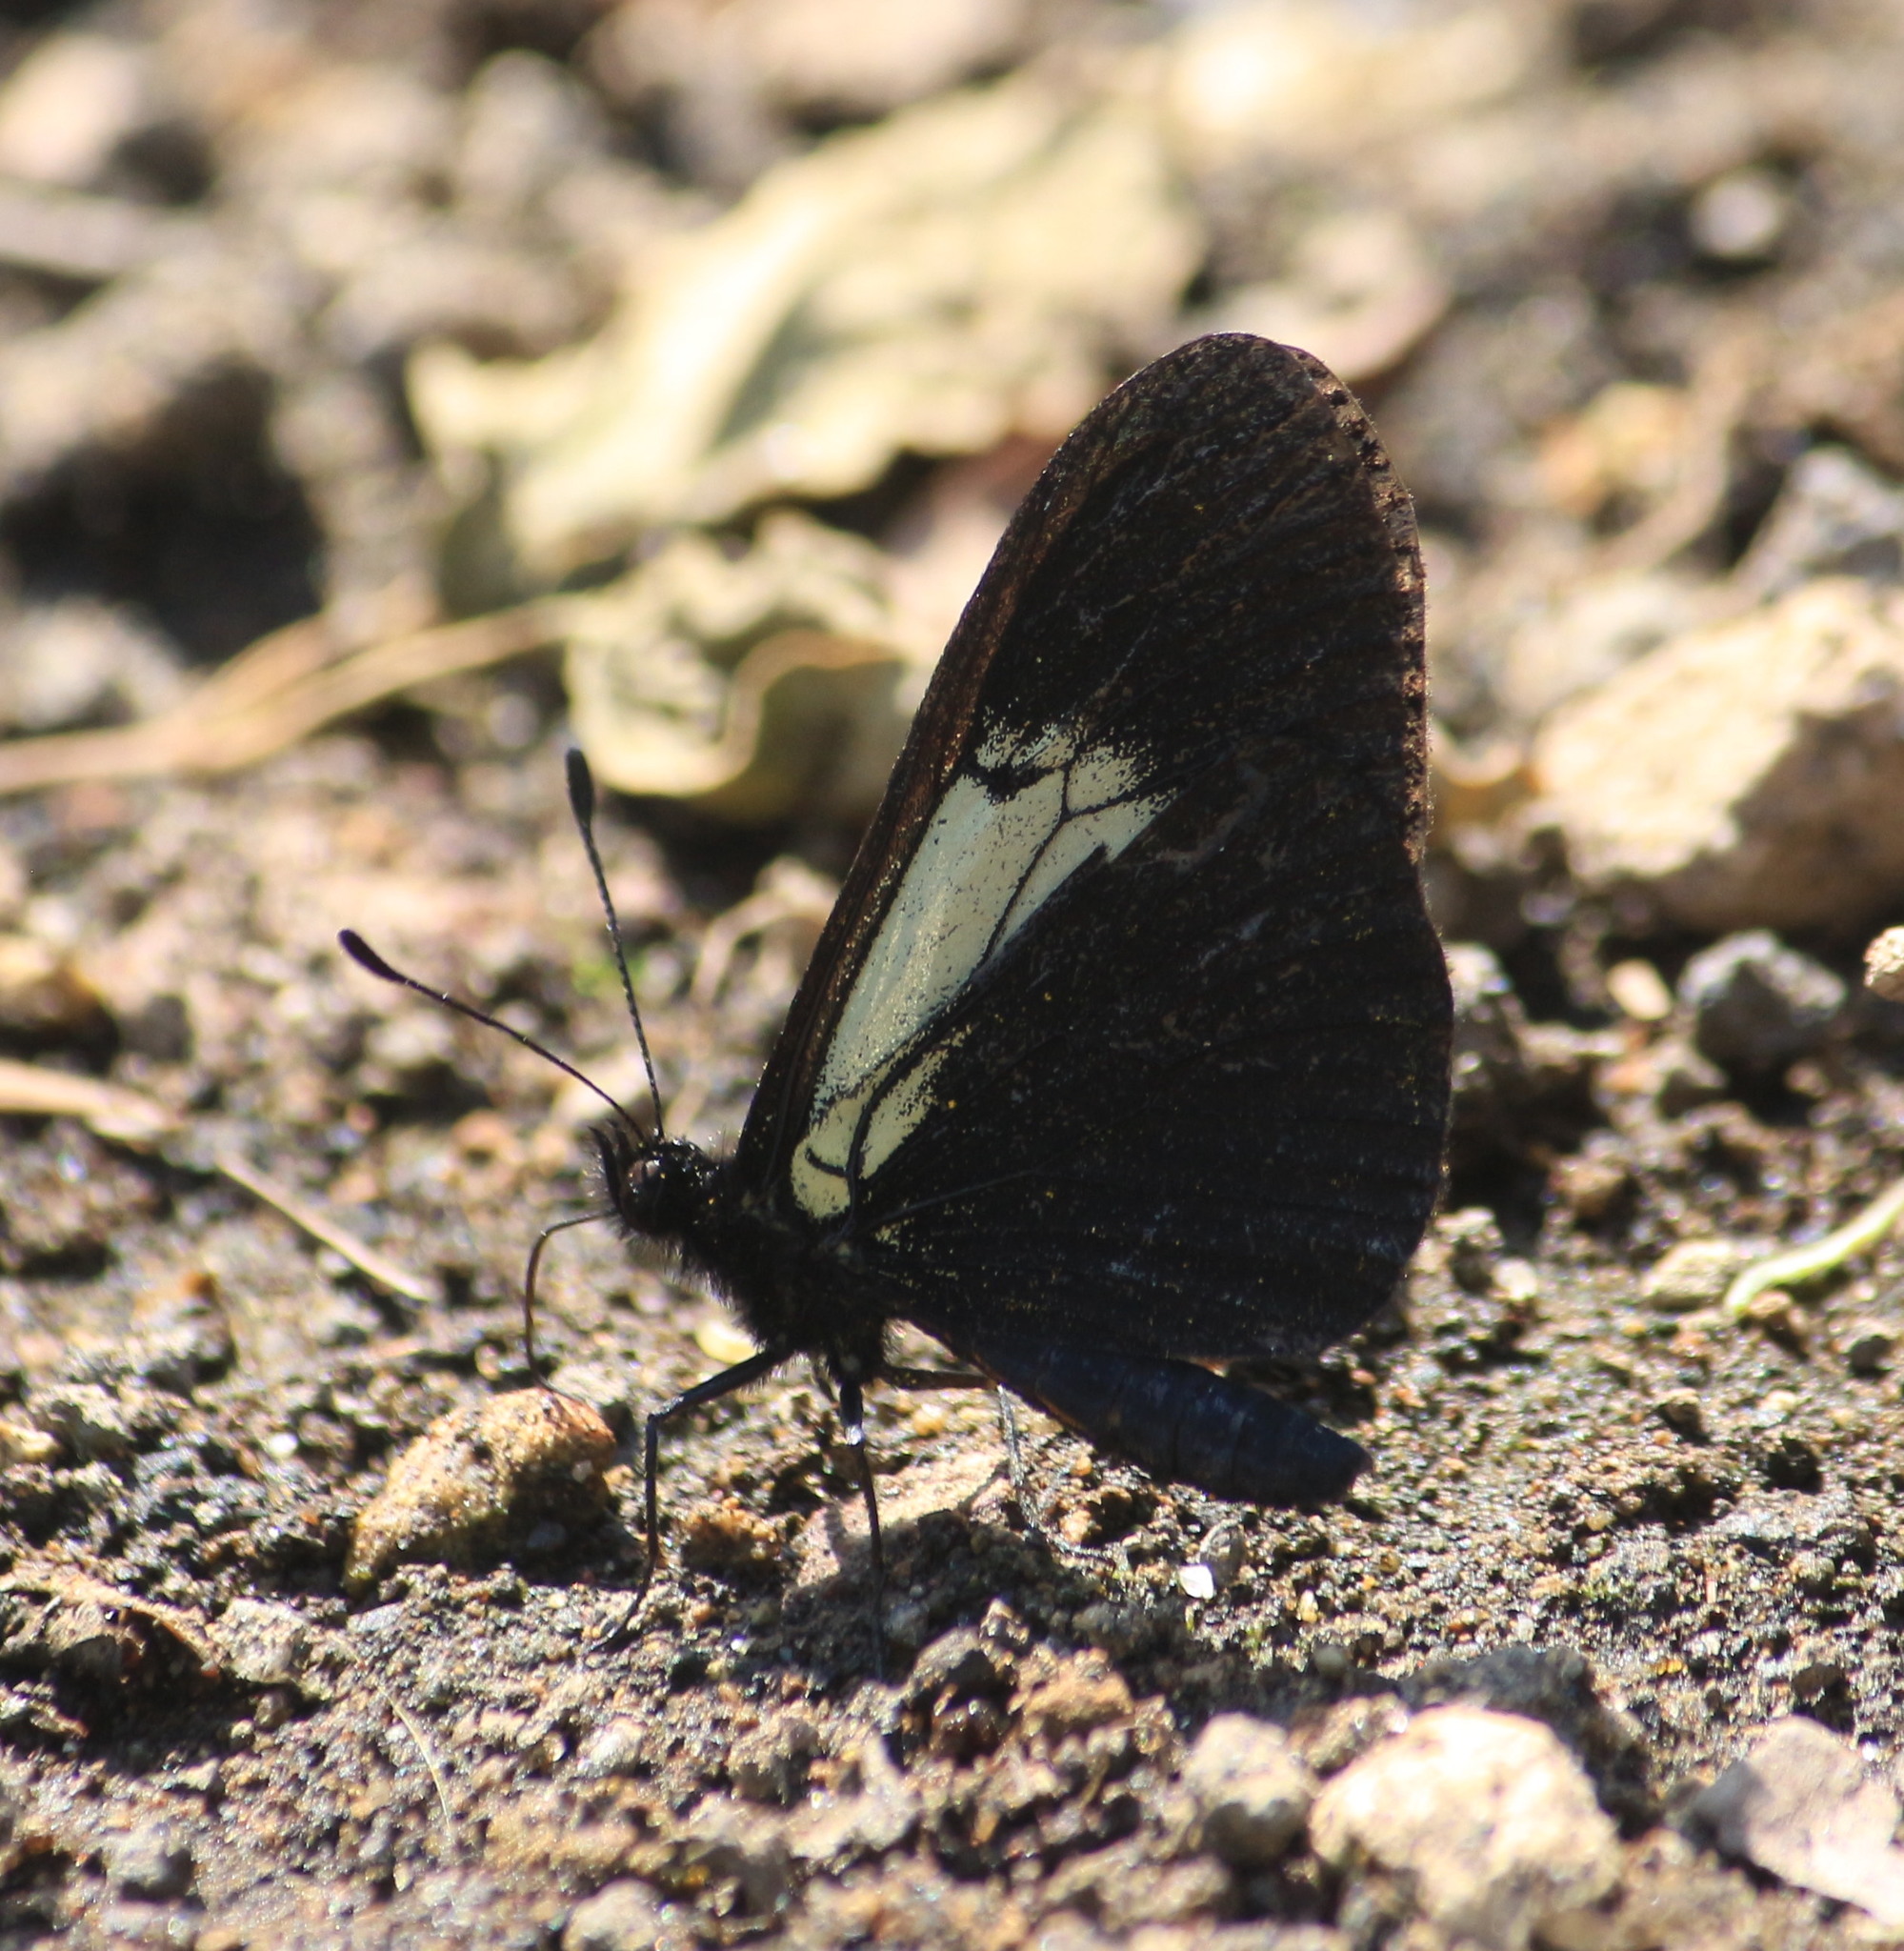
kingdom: Animalia
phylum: Arthropoda
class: Insecta
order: Lepidoptera
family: Nymphalidae
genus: Acraea
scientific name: Acraea Altinote ozomene
